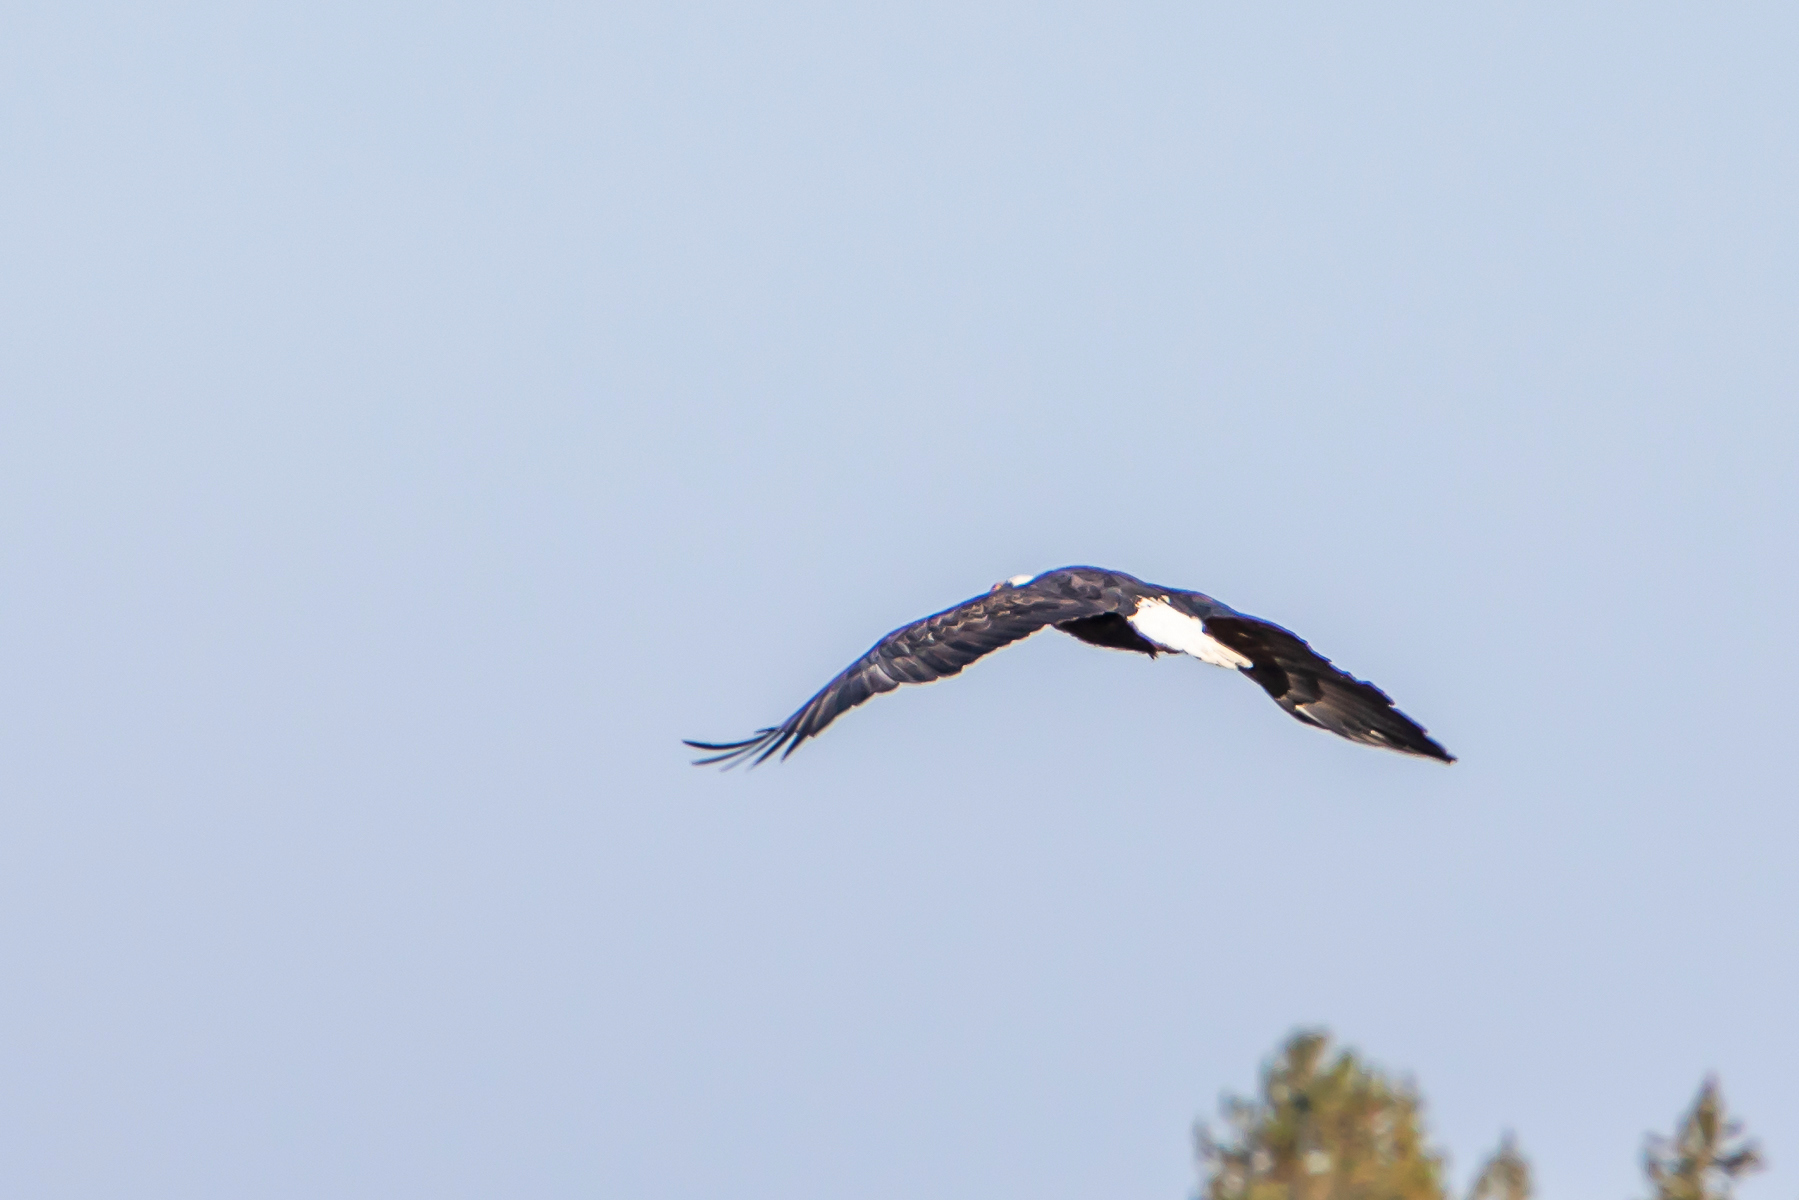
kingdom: Animalia
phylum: Chordata
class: Aves
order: Accipitriformes
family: Accipitridae
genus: Haliaeetus
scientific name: Haliaeetus leucocephalus
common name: Bald eagle
